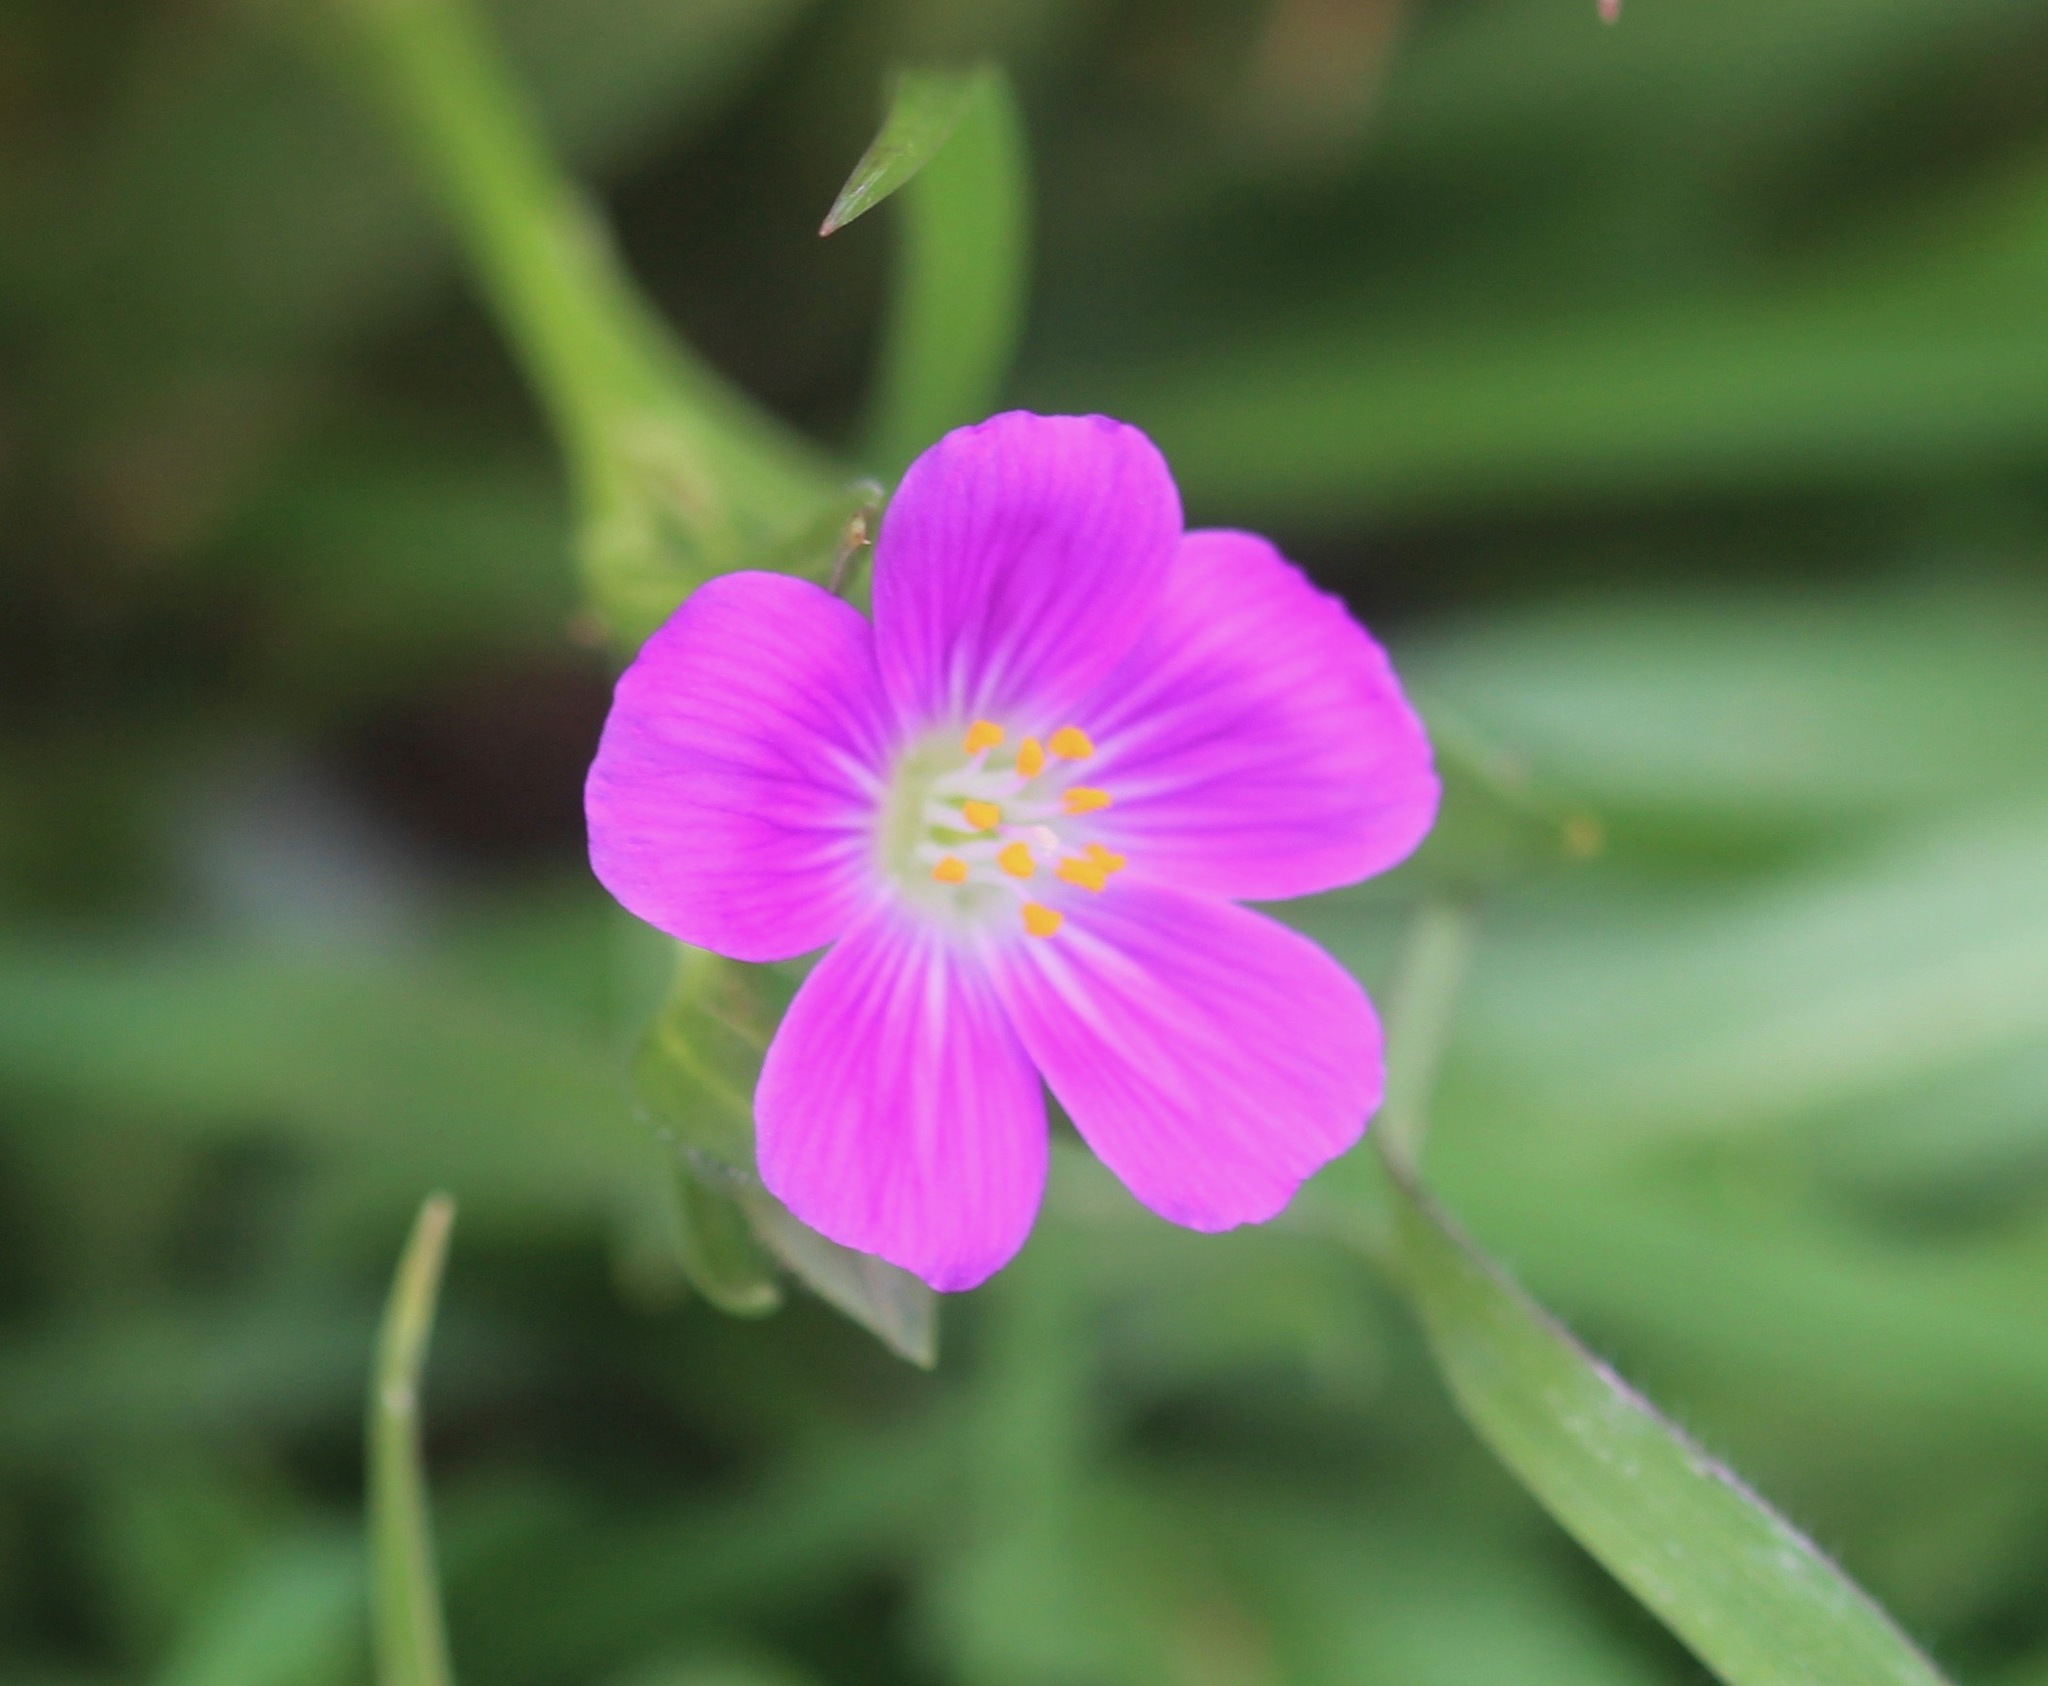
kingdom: Plantae
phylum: Tracheophyta
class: Magnoliopsida
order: Caryophyllales
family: Montiaceae
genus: Calandrinia
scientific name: Calandrinia menziesii
